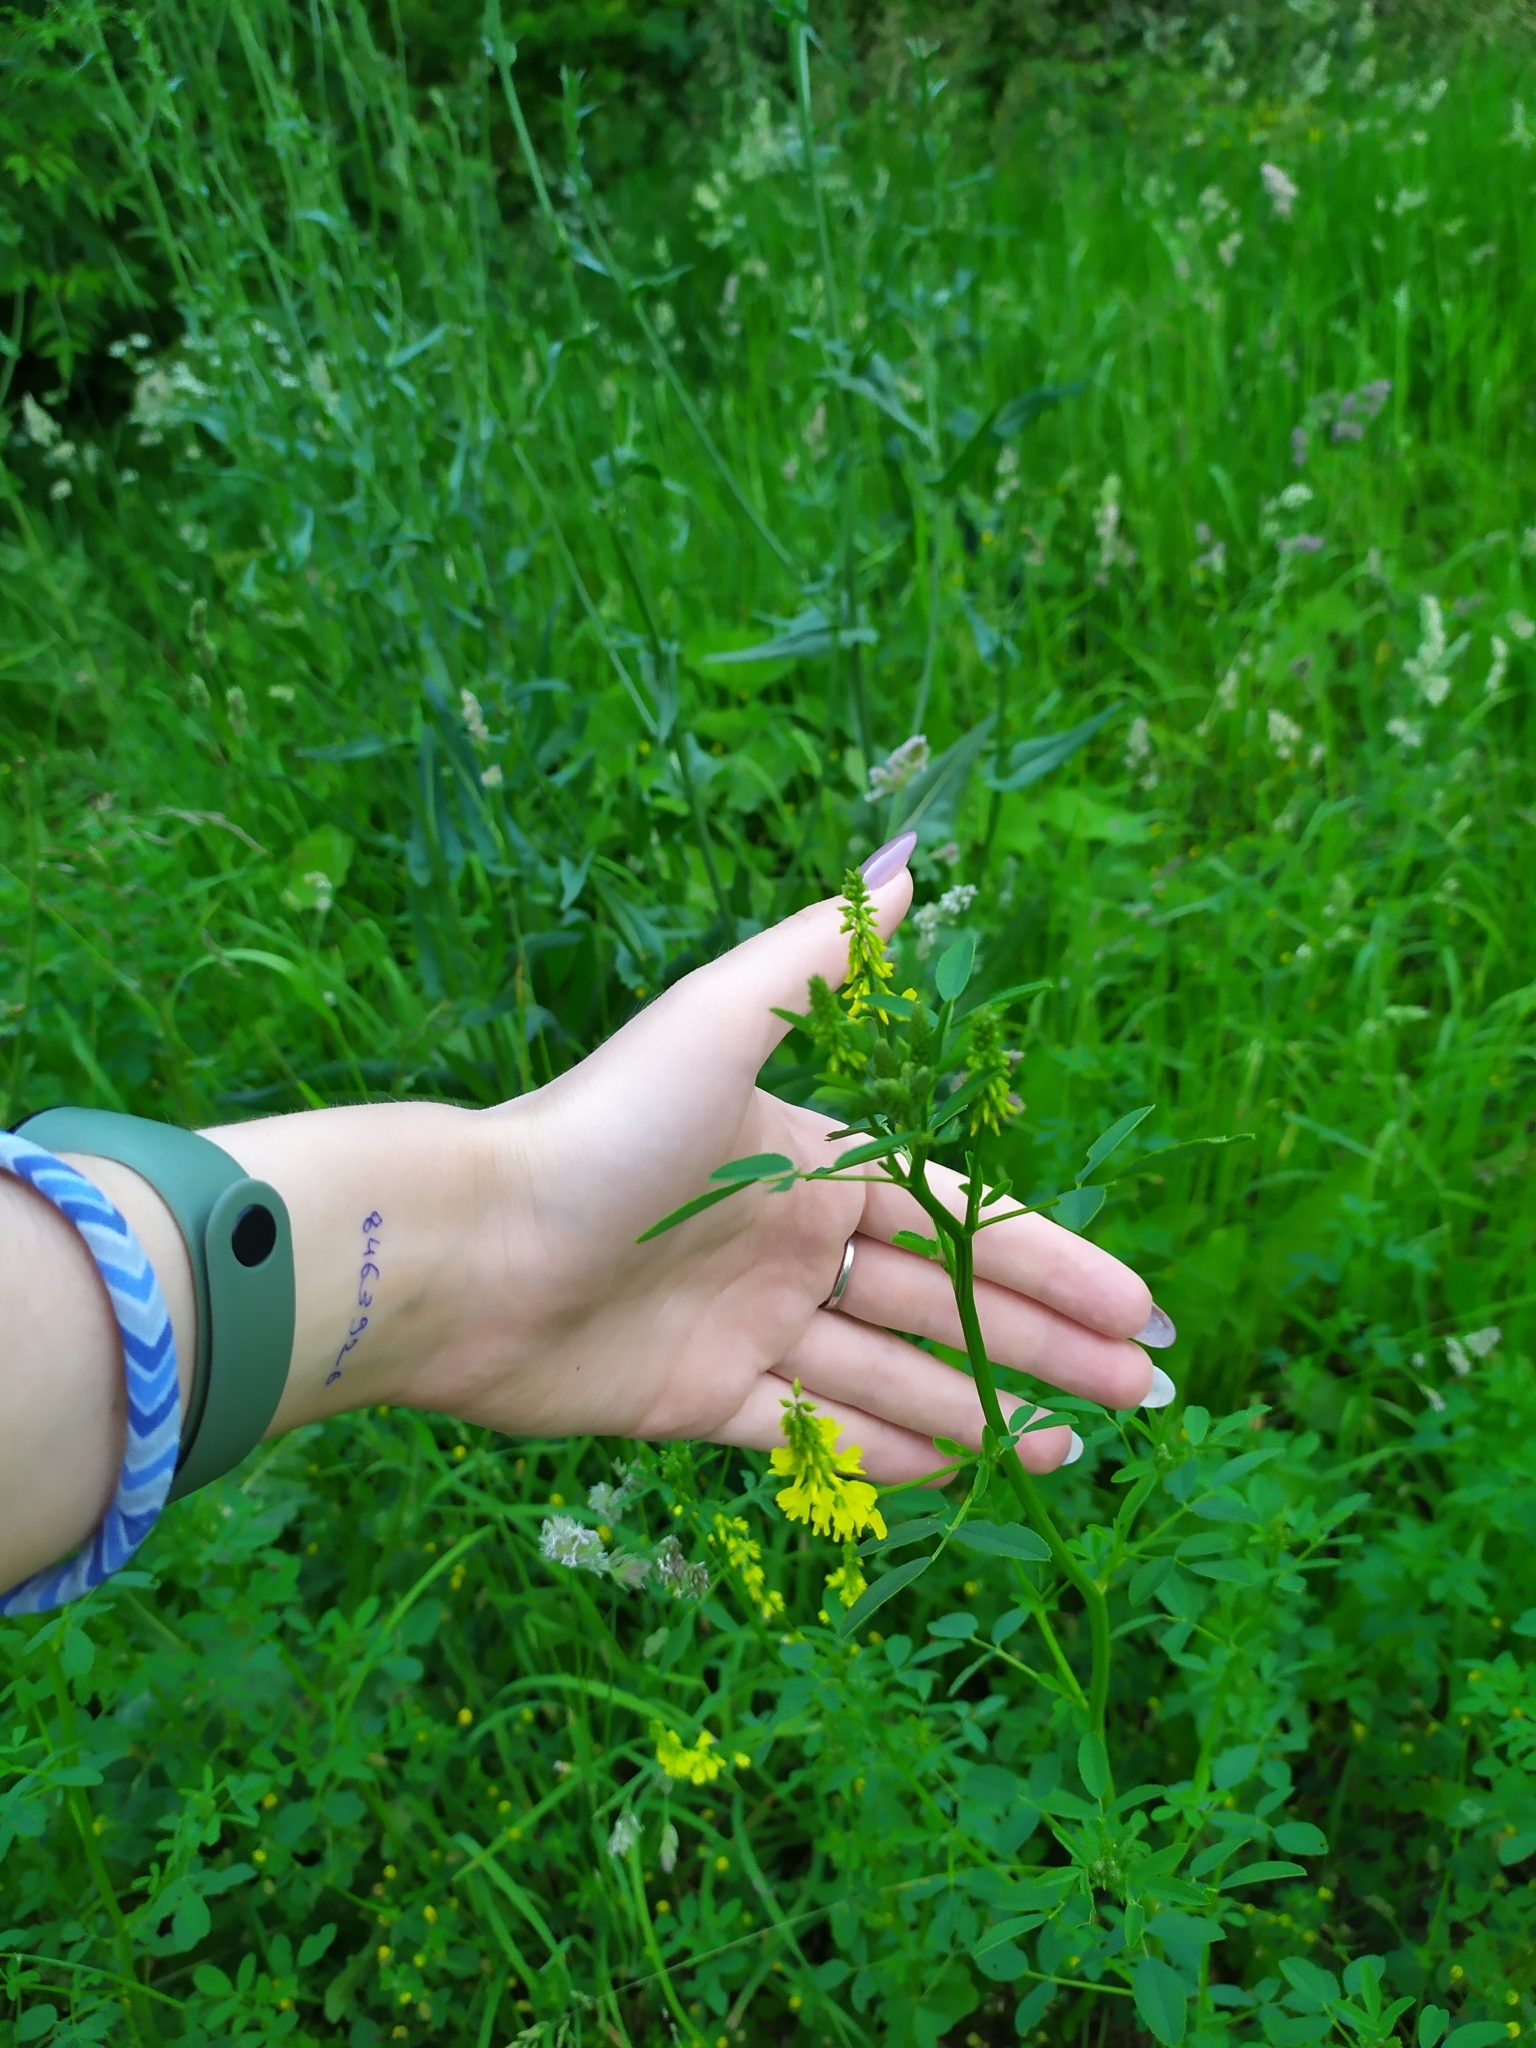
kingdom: Plantae
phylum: Tracheophyta
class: Magnoliopsida
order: Fabales
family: Fabaceae
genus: Melilotus
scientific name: Melilotus officinalis
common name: Sweetclover
